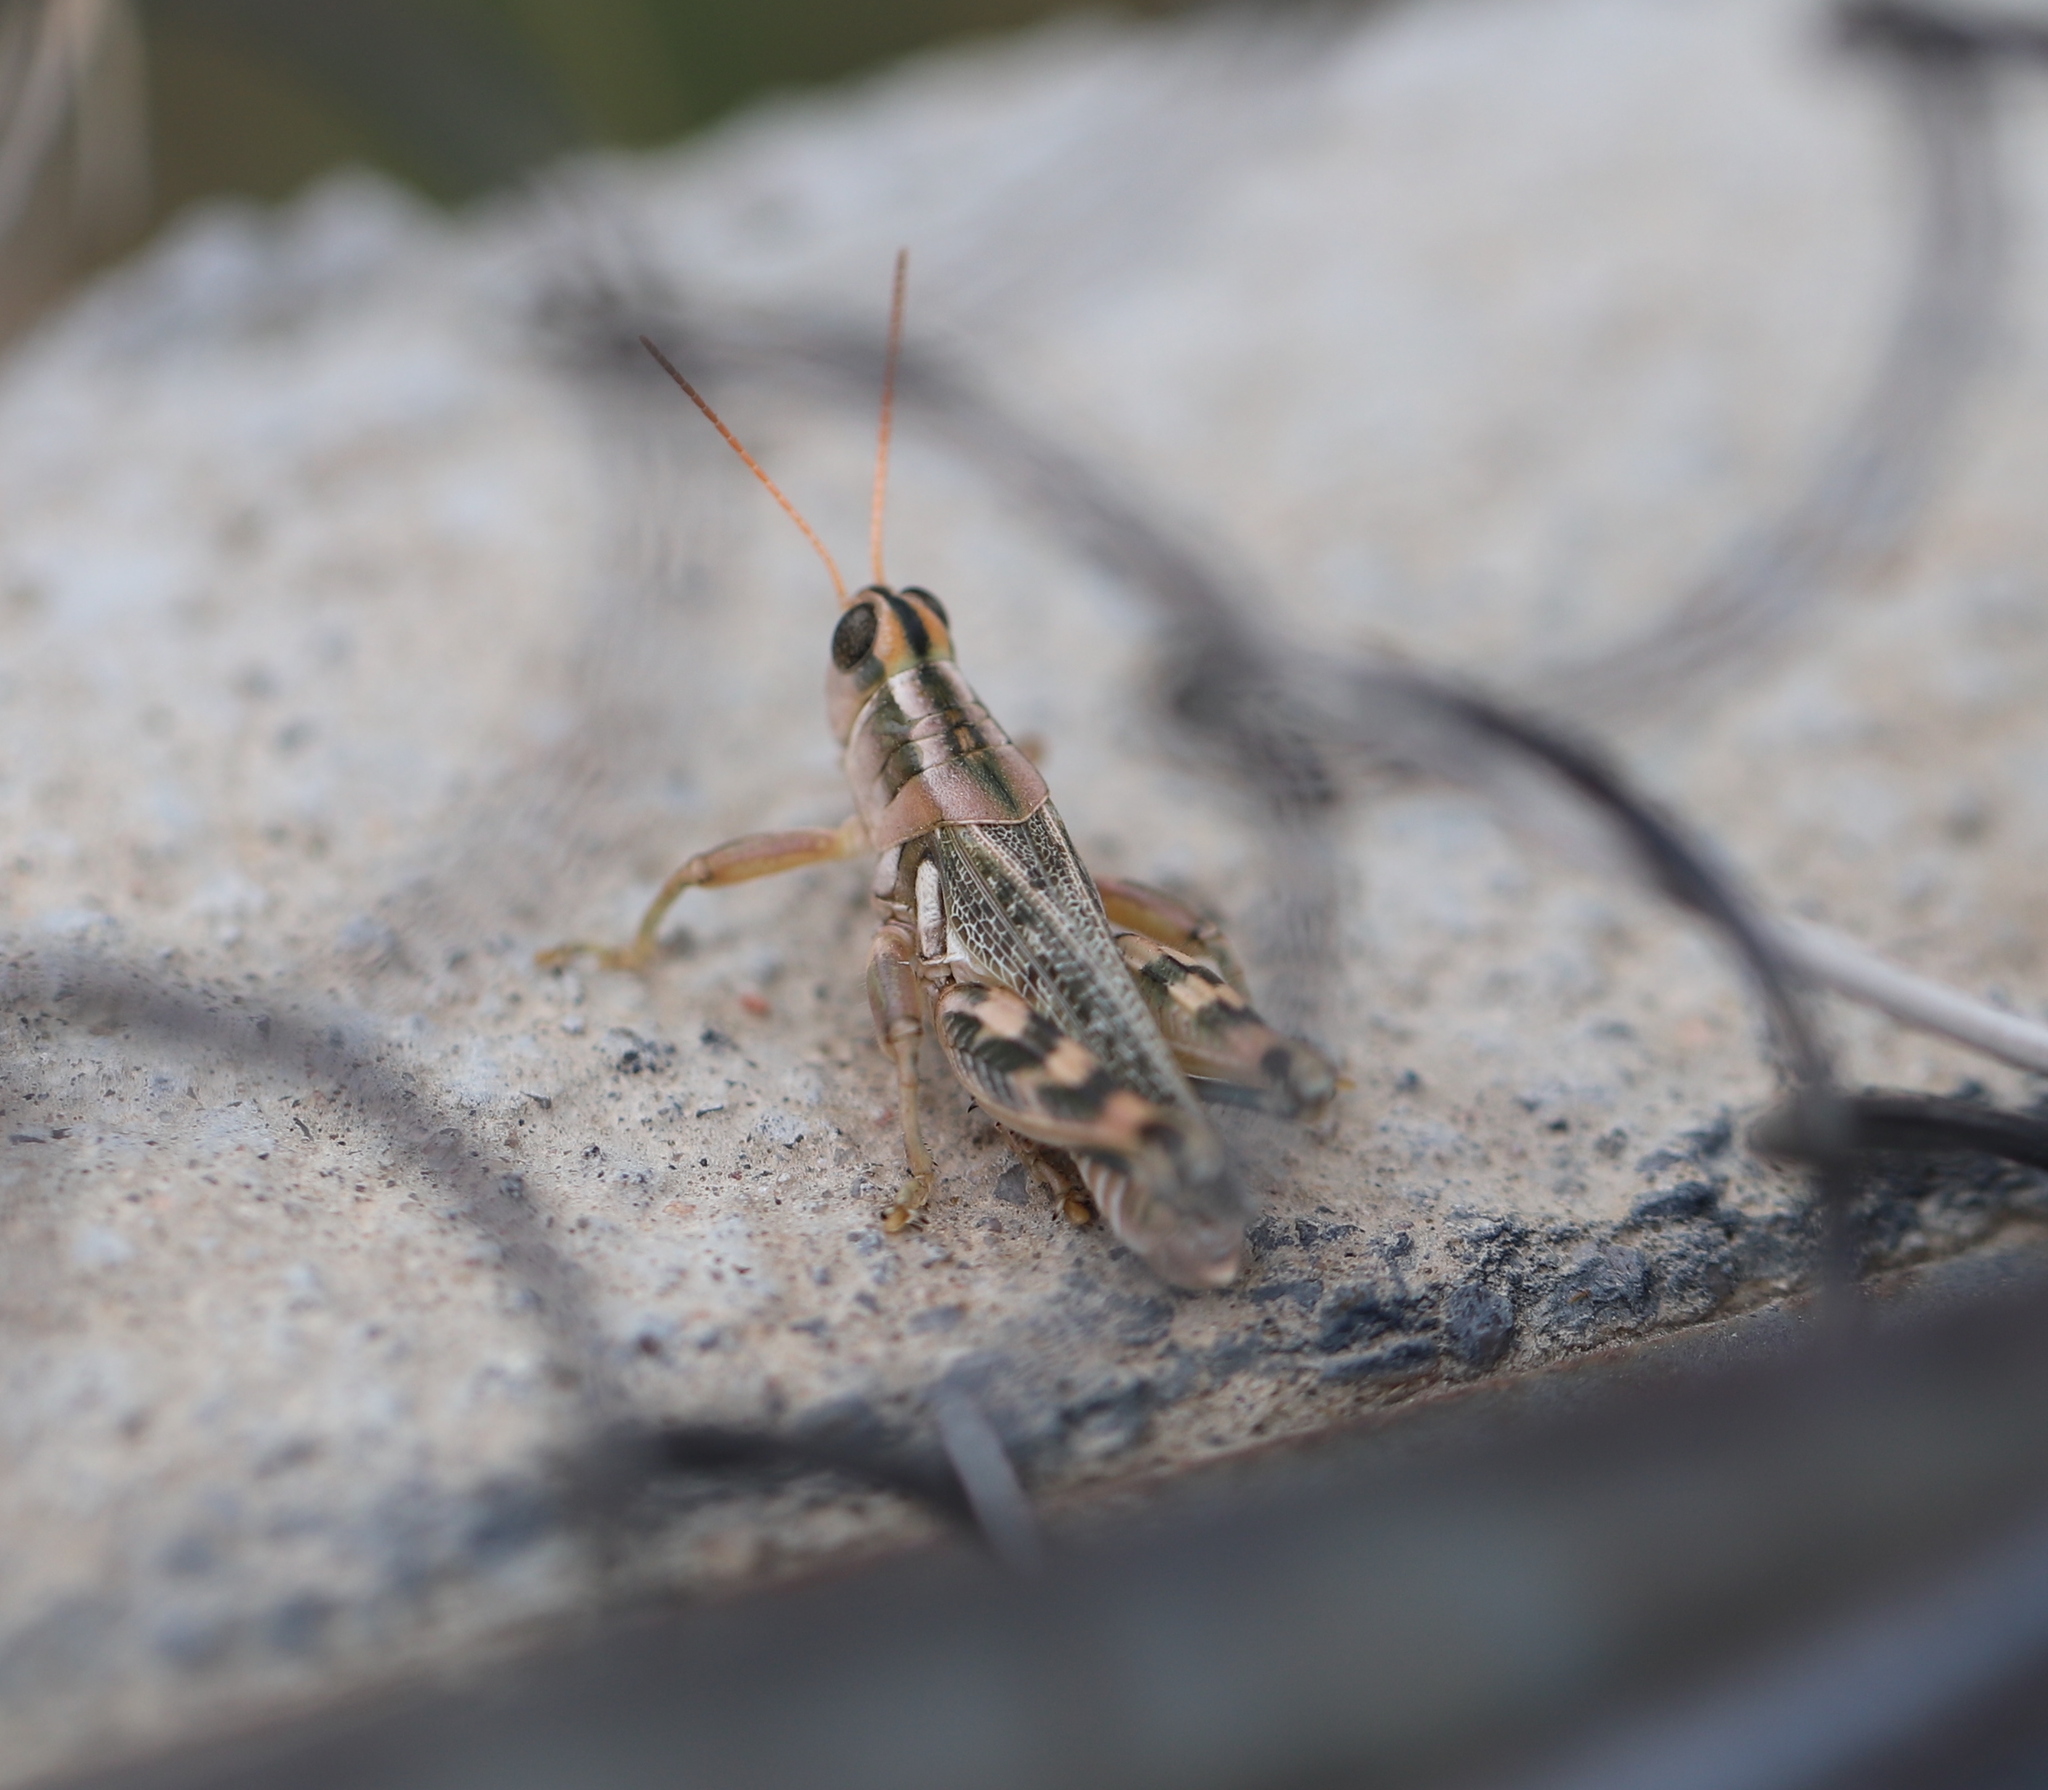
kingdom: Animalia
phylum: Arthropoda
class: Insecta
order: Orthoptera
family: Acrididae
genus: Aeoloplides
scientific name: Aeoloplides turnbulli
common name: Russianthistle grasshopper
